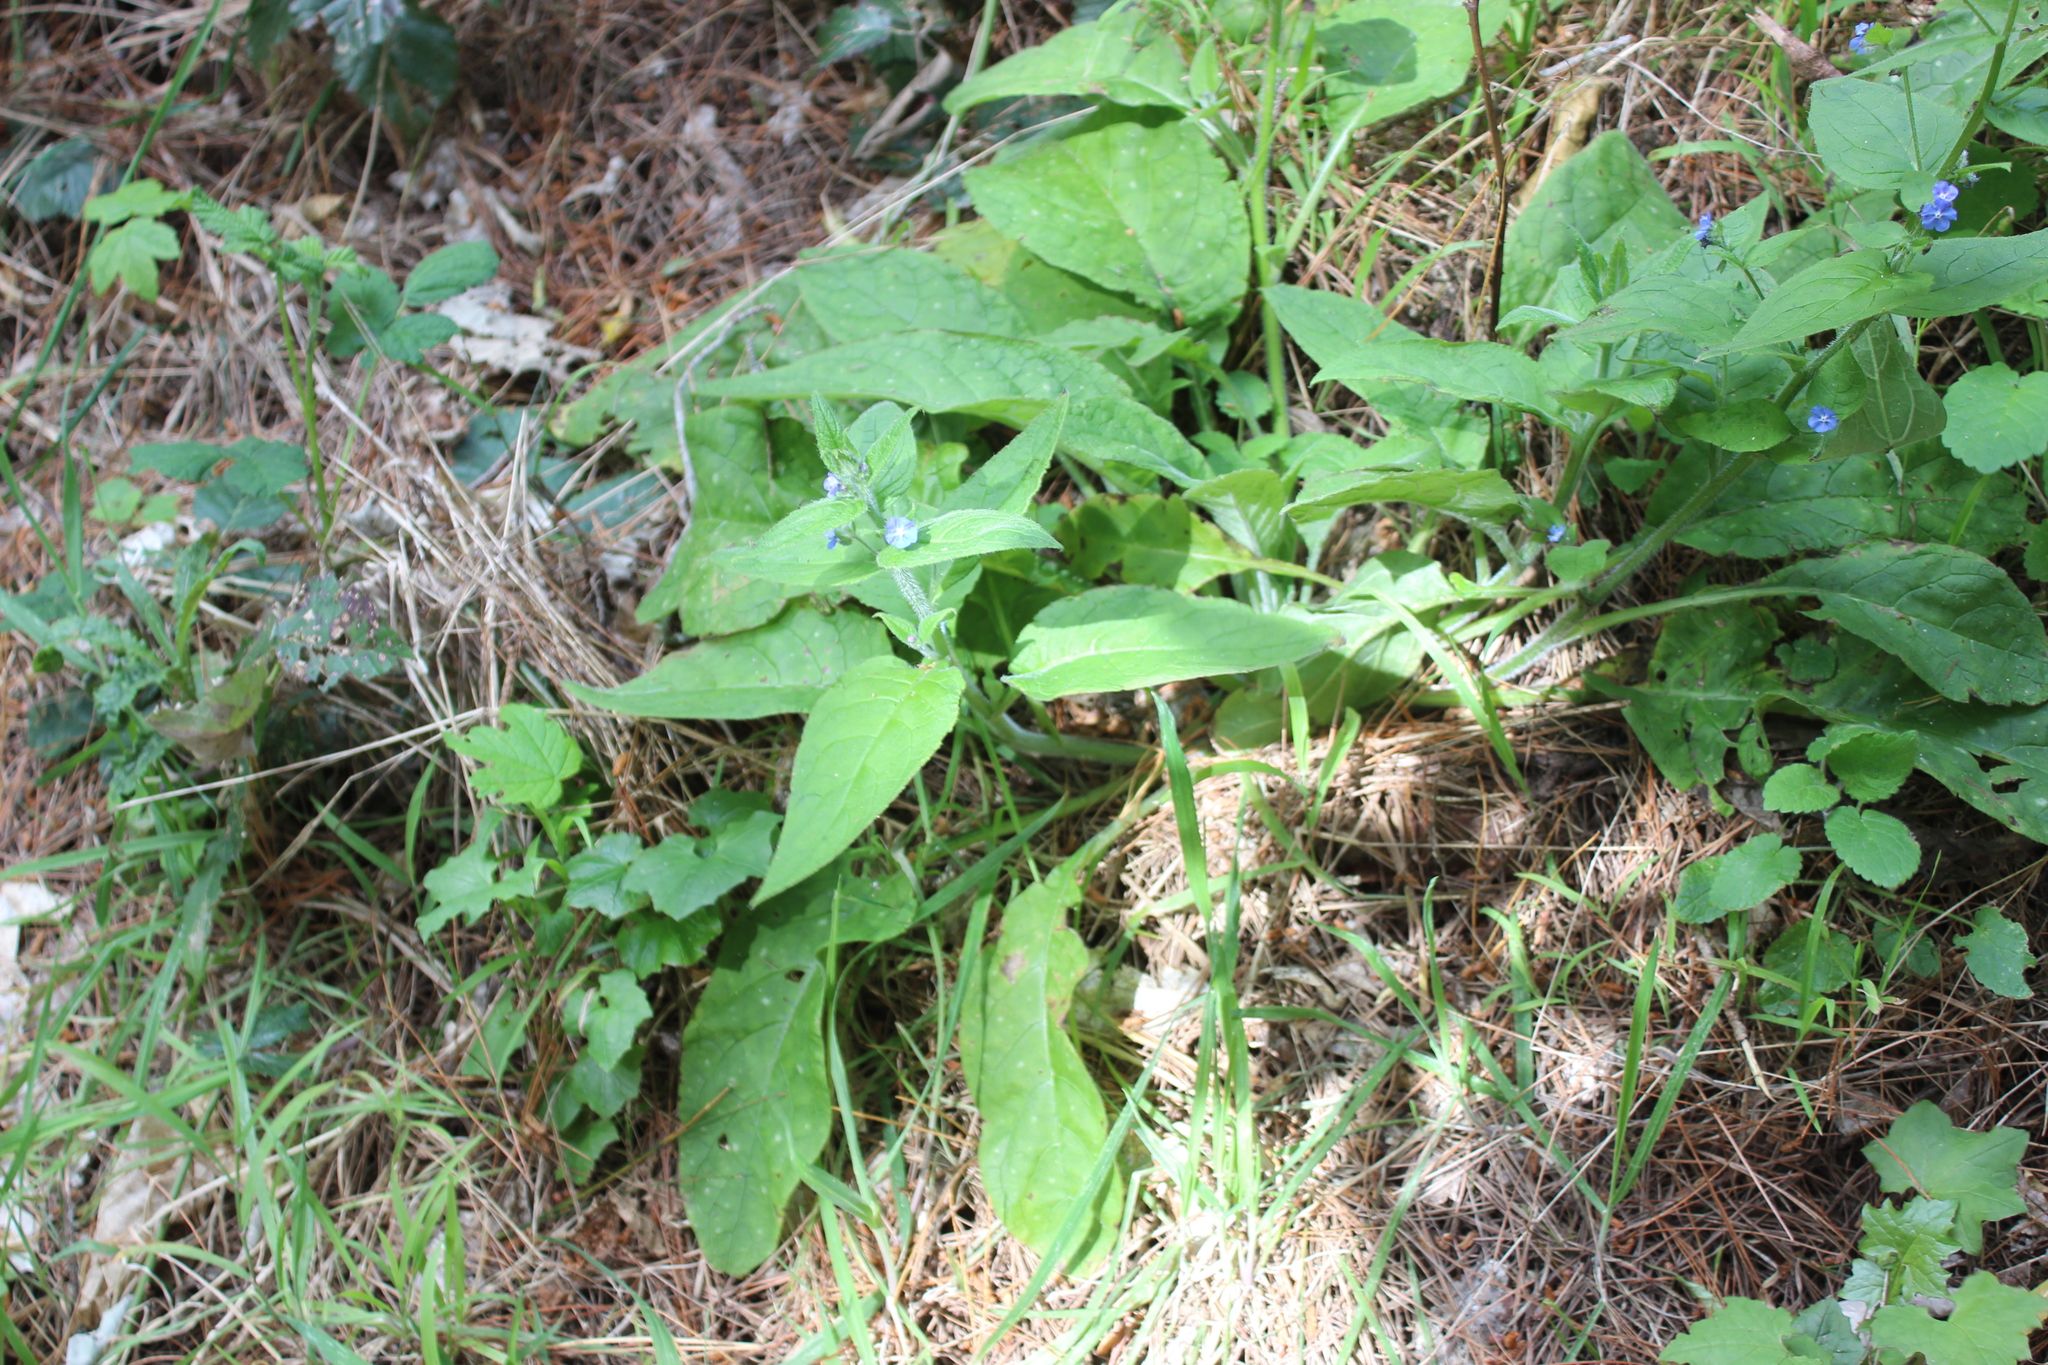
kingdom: Plantae
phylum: Tracheophyta
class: Magnoliopsida
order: Boraginales
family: Boraginaceae
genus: Pentaglottis
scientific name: Pentaglottis sempervirens
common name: Green alkanet
